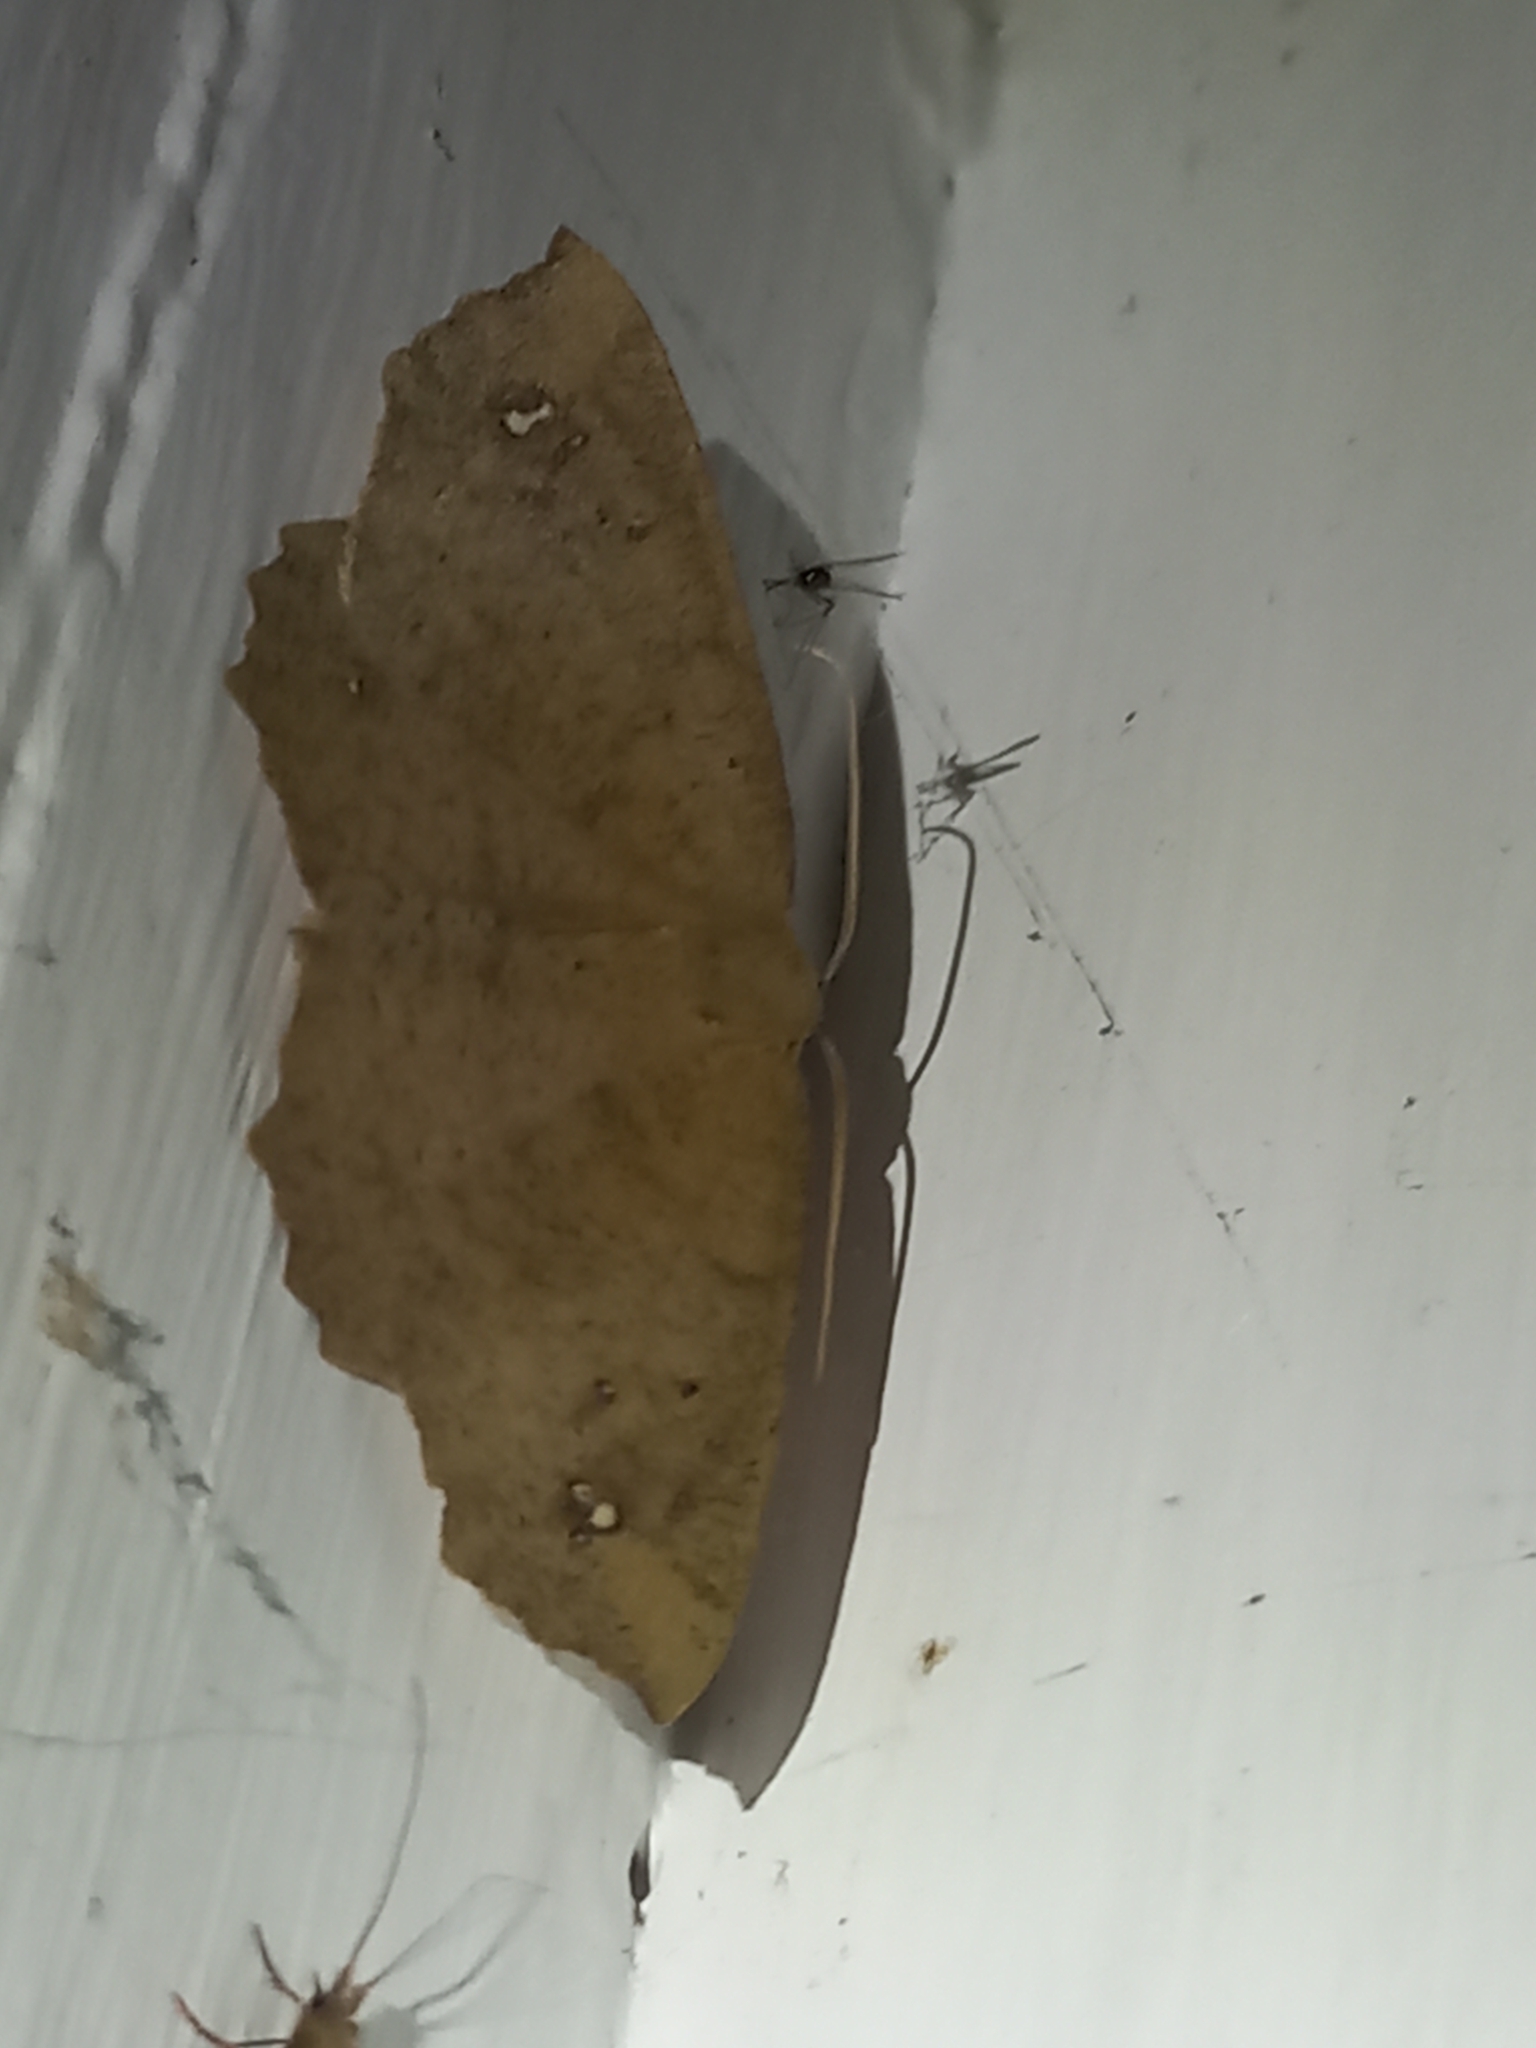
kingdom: Animalia
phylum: Arthropoda
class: Insecta
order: Lepidoptera
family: Geometridae
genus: Xyridacma
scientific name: Xyridacma ustaria
